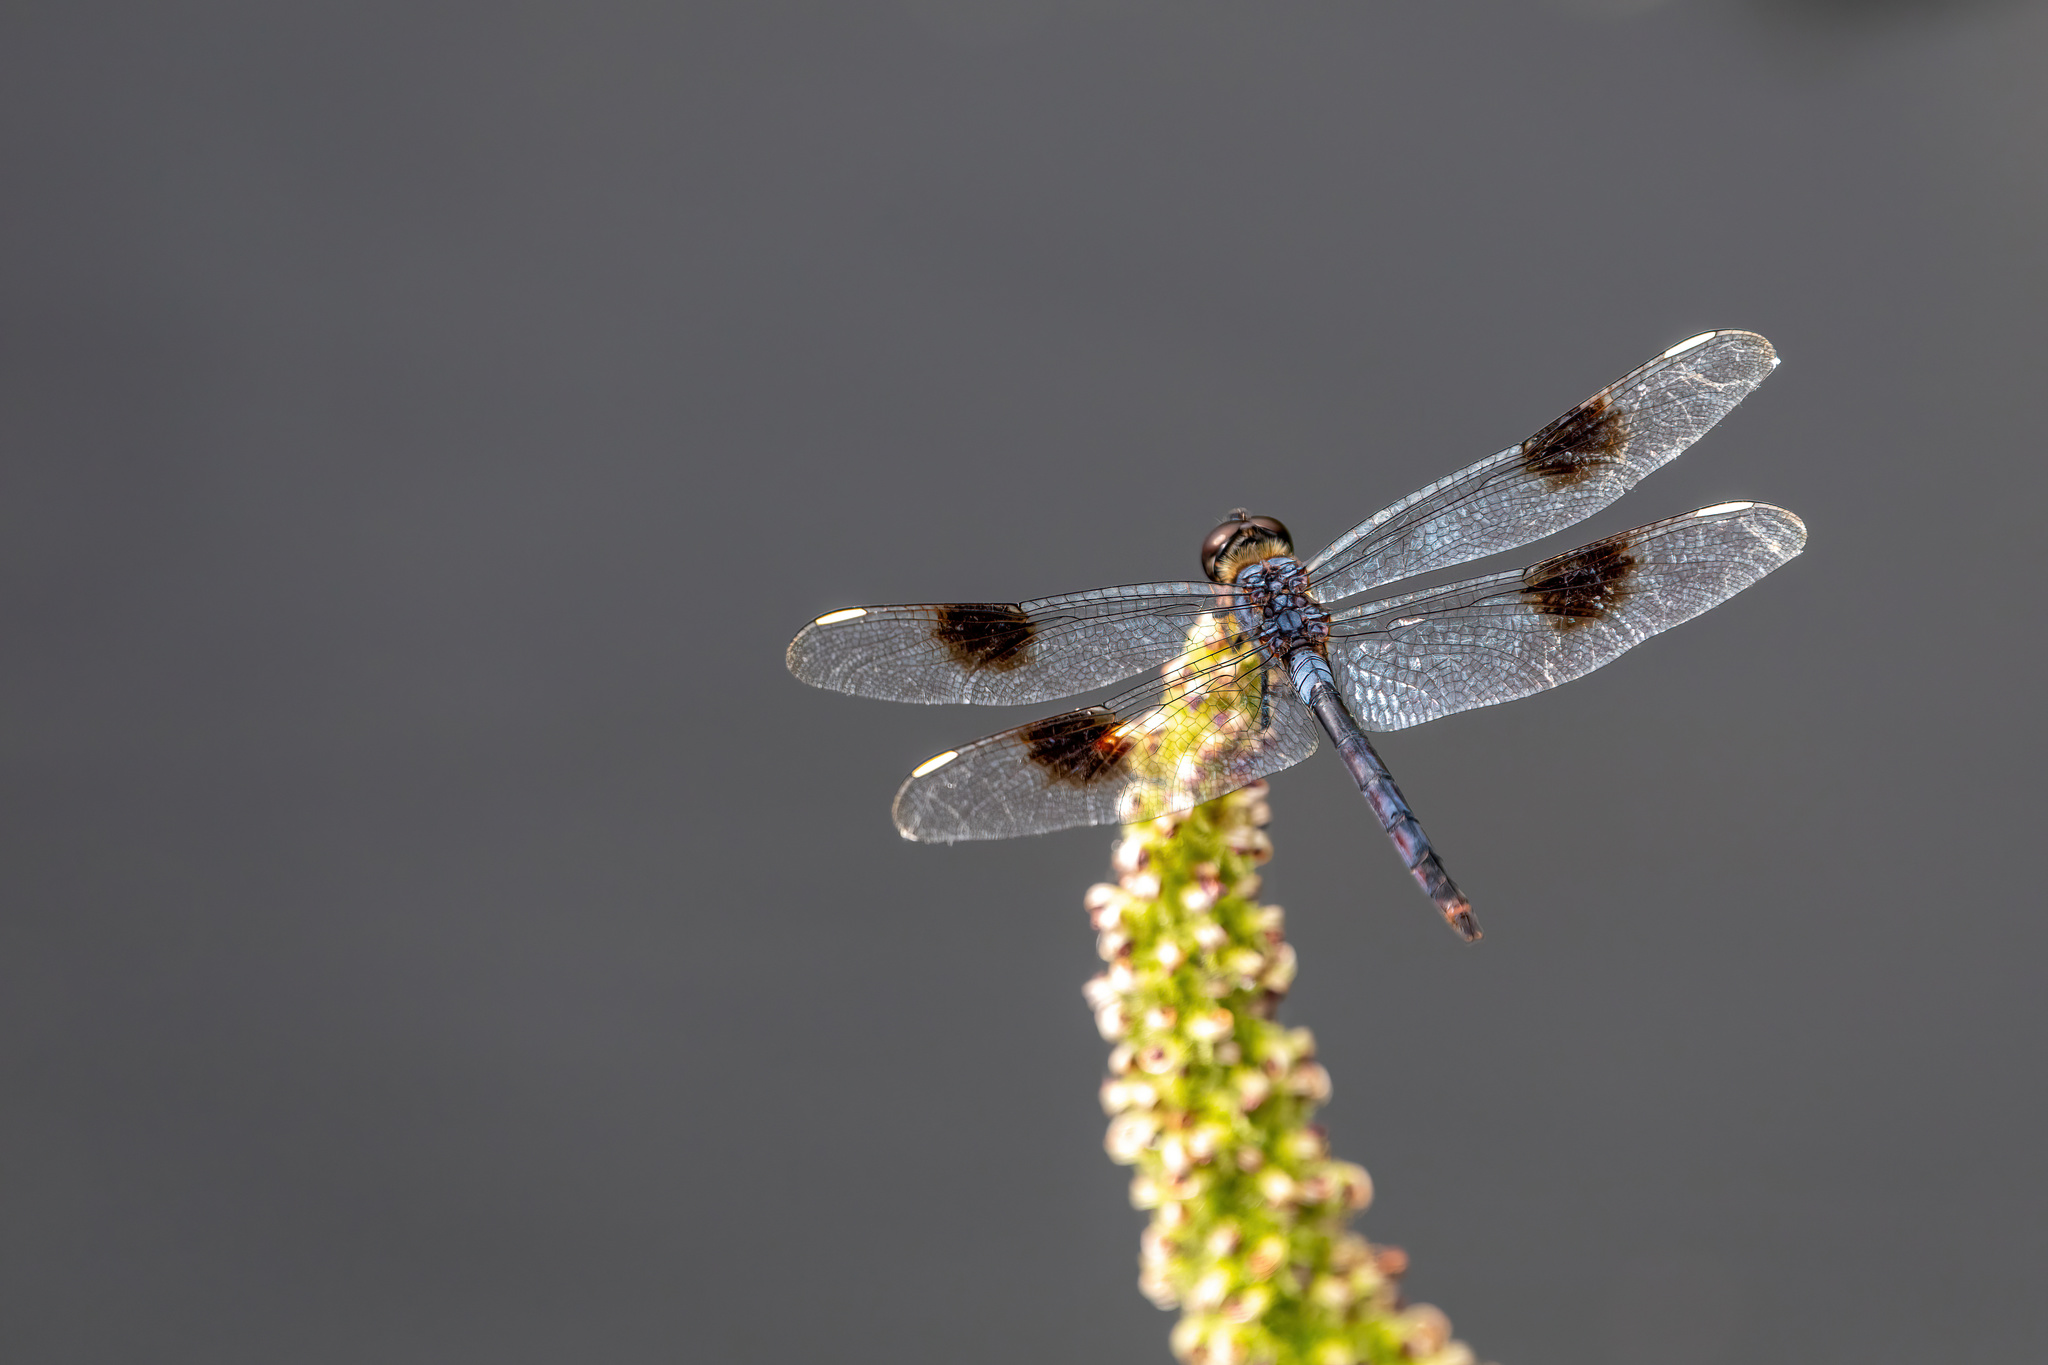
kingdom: Animalia
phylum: Arthropoda
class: Insecta
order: Odonata
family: Libellulidae
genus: Brachymesia
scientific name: Brachymesia gravida
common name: Four-spotted pennant
